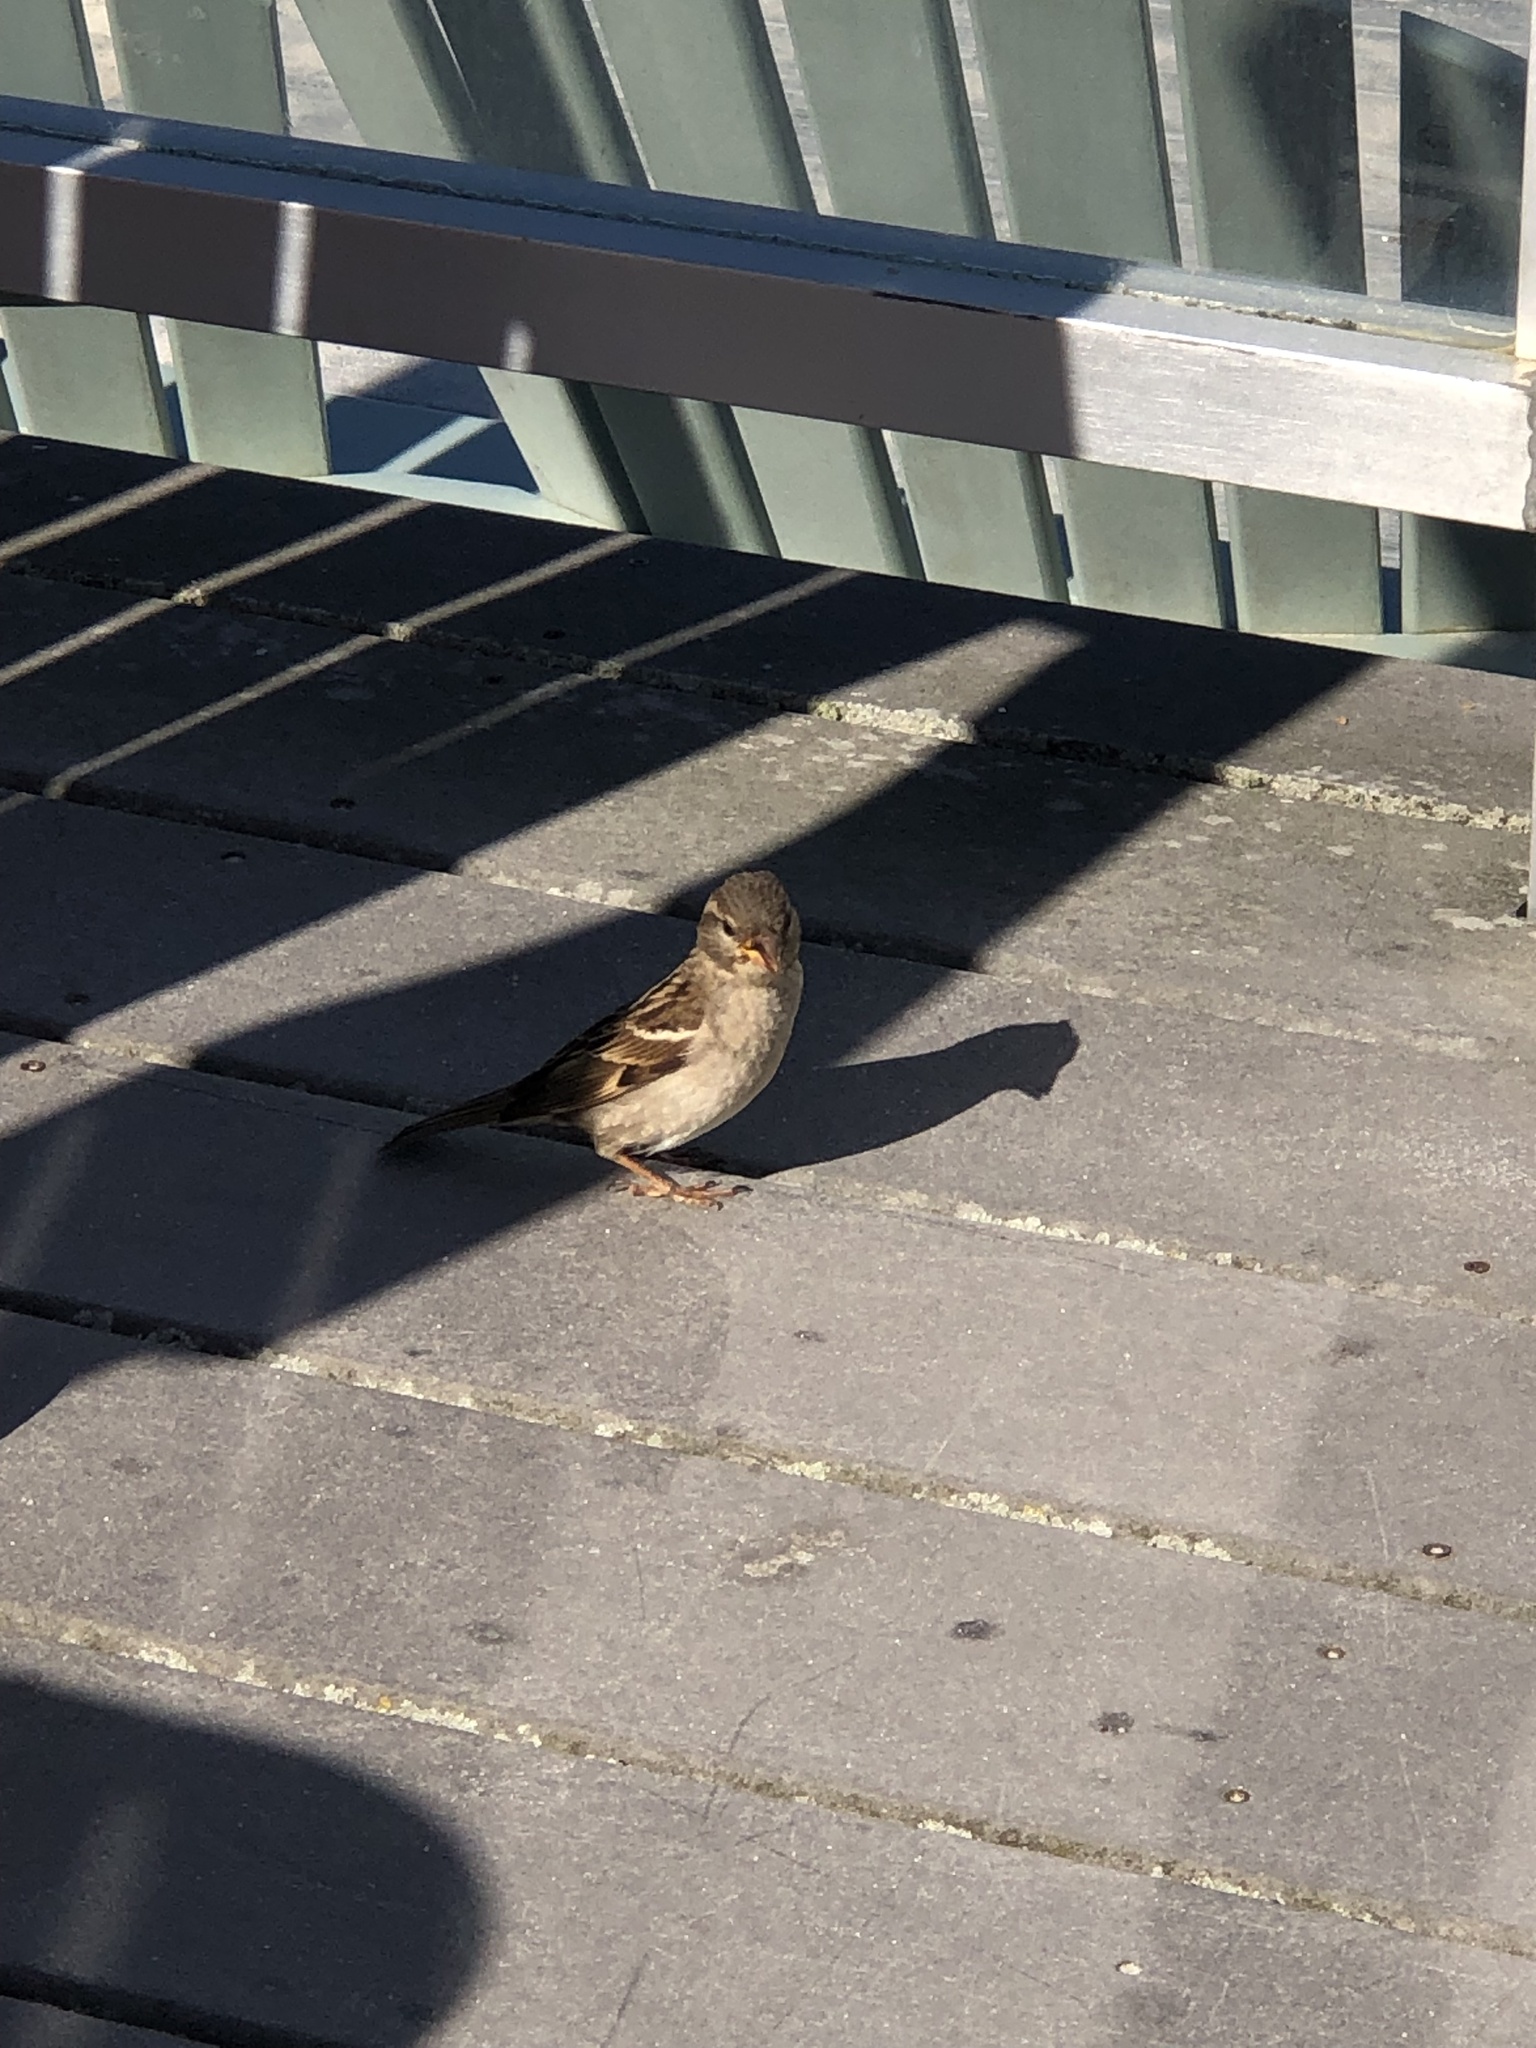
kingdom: Animalia
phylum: Chordata
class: Aves
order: Passeriformes
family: Passeridae
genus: Passer
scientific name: Passer domesticus
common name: House sparrow
